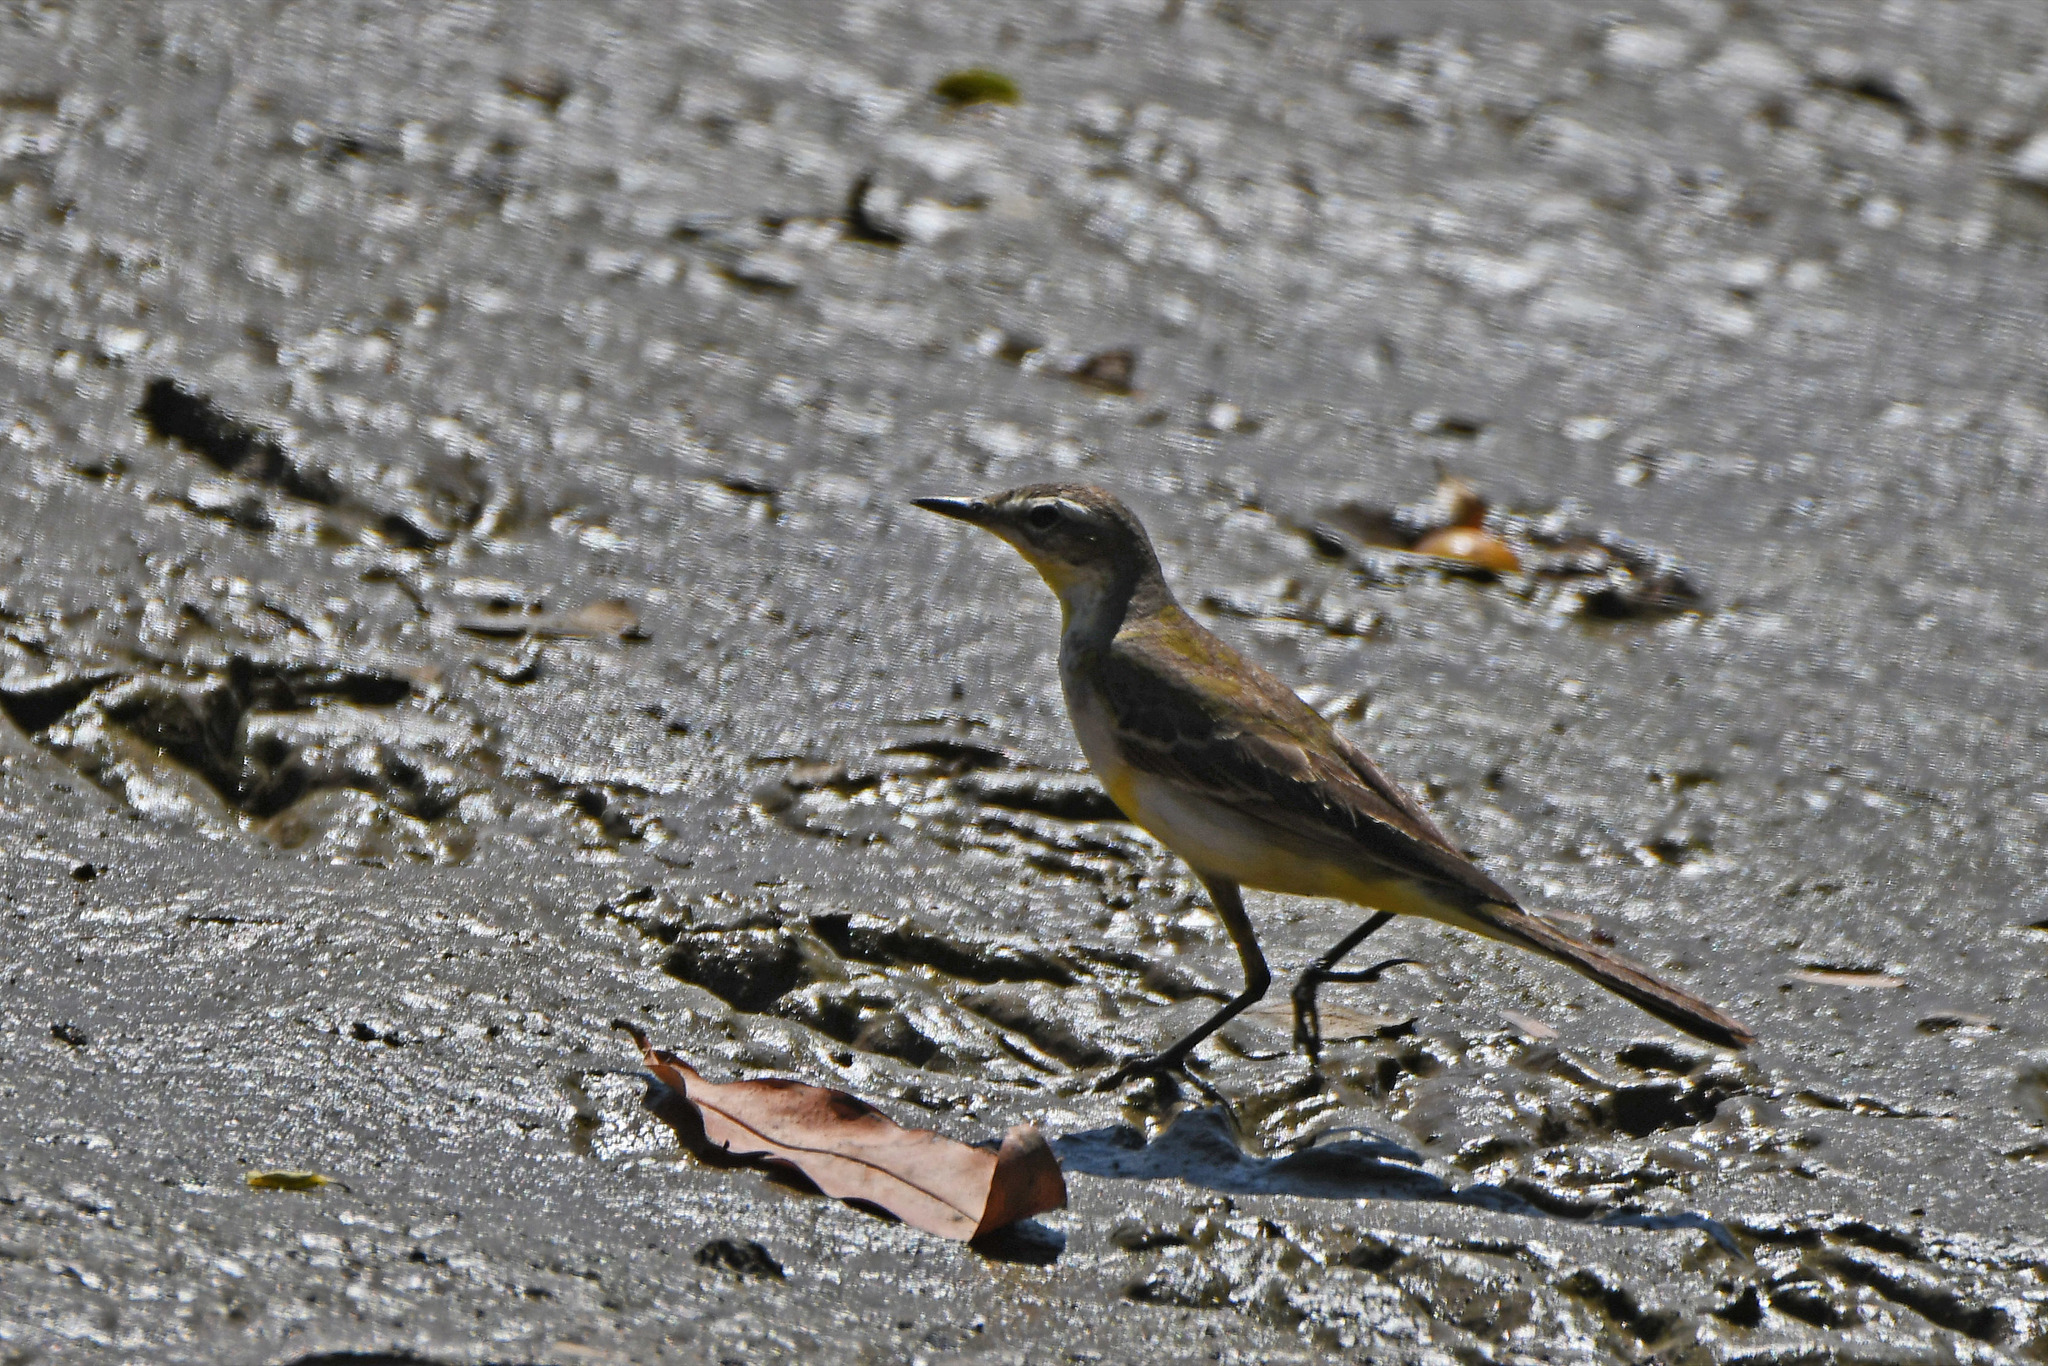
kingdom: Animalia
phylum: Chordata
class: Aves
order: Passeriformes
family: Motacillidae
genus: Motacilla
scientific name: Motacilla flava
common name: Western yellow wagtail
